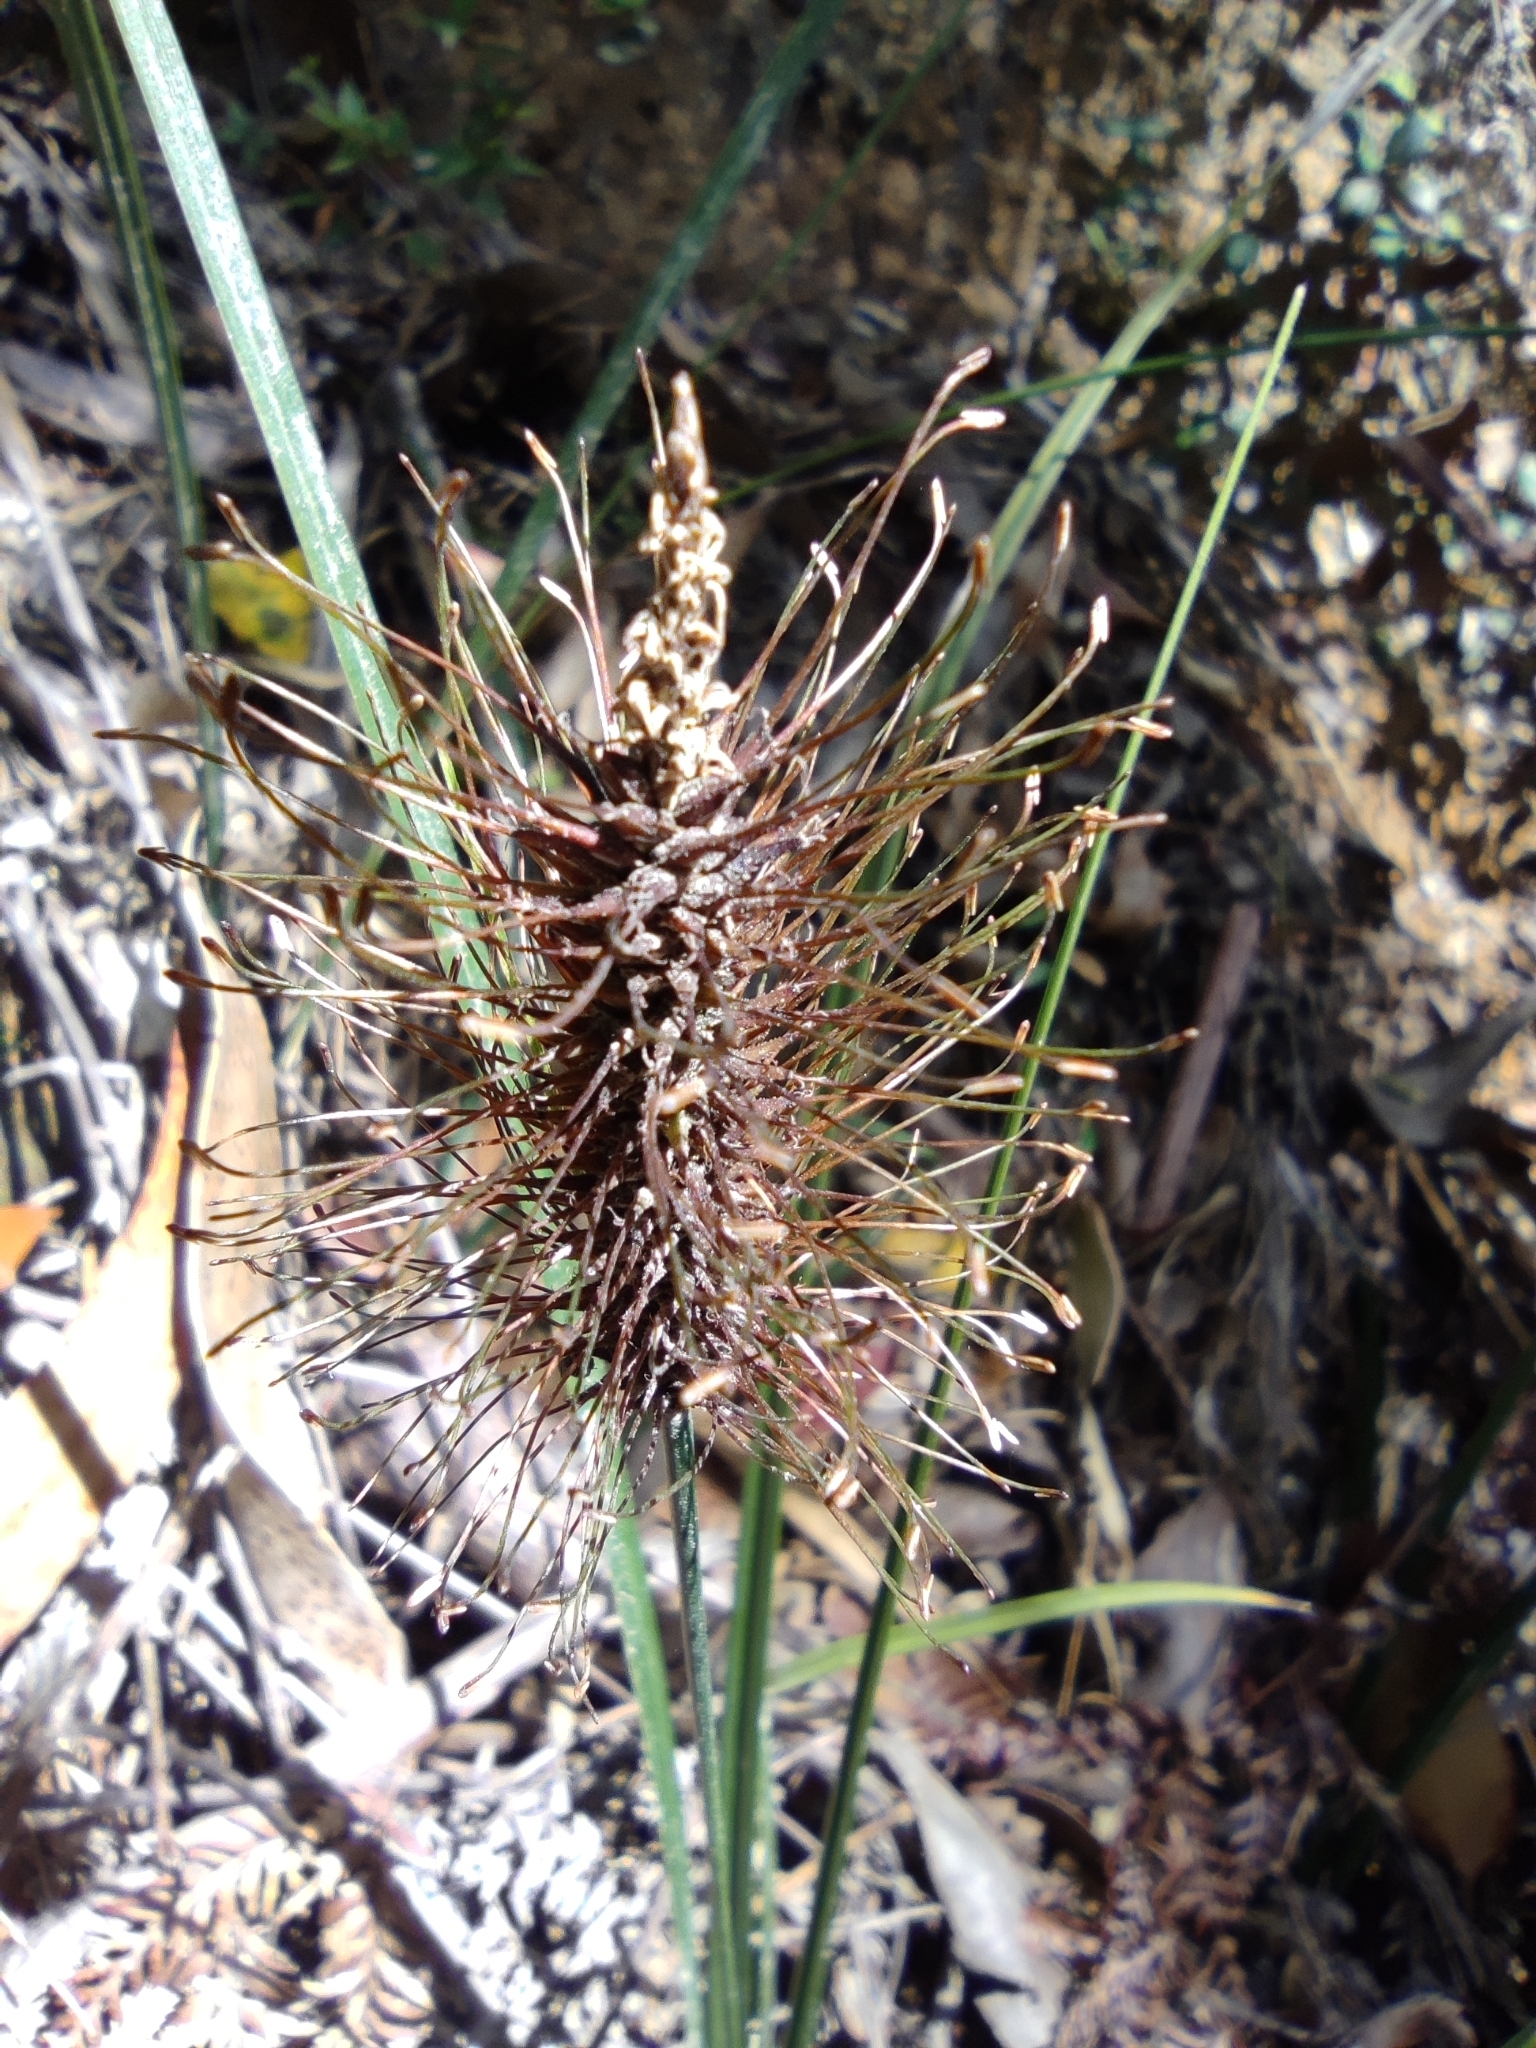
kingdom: Plantae
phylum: Tracheophyta
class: Liliopsida
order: Poales
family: Cyperaceae
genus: Carex
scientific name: Carex erinacea
